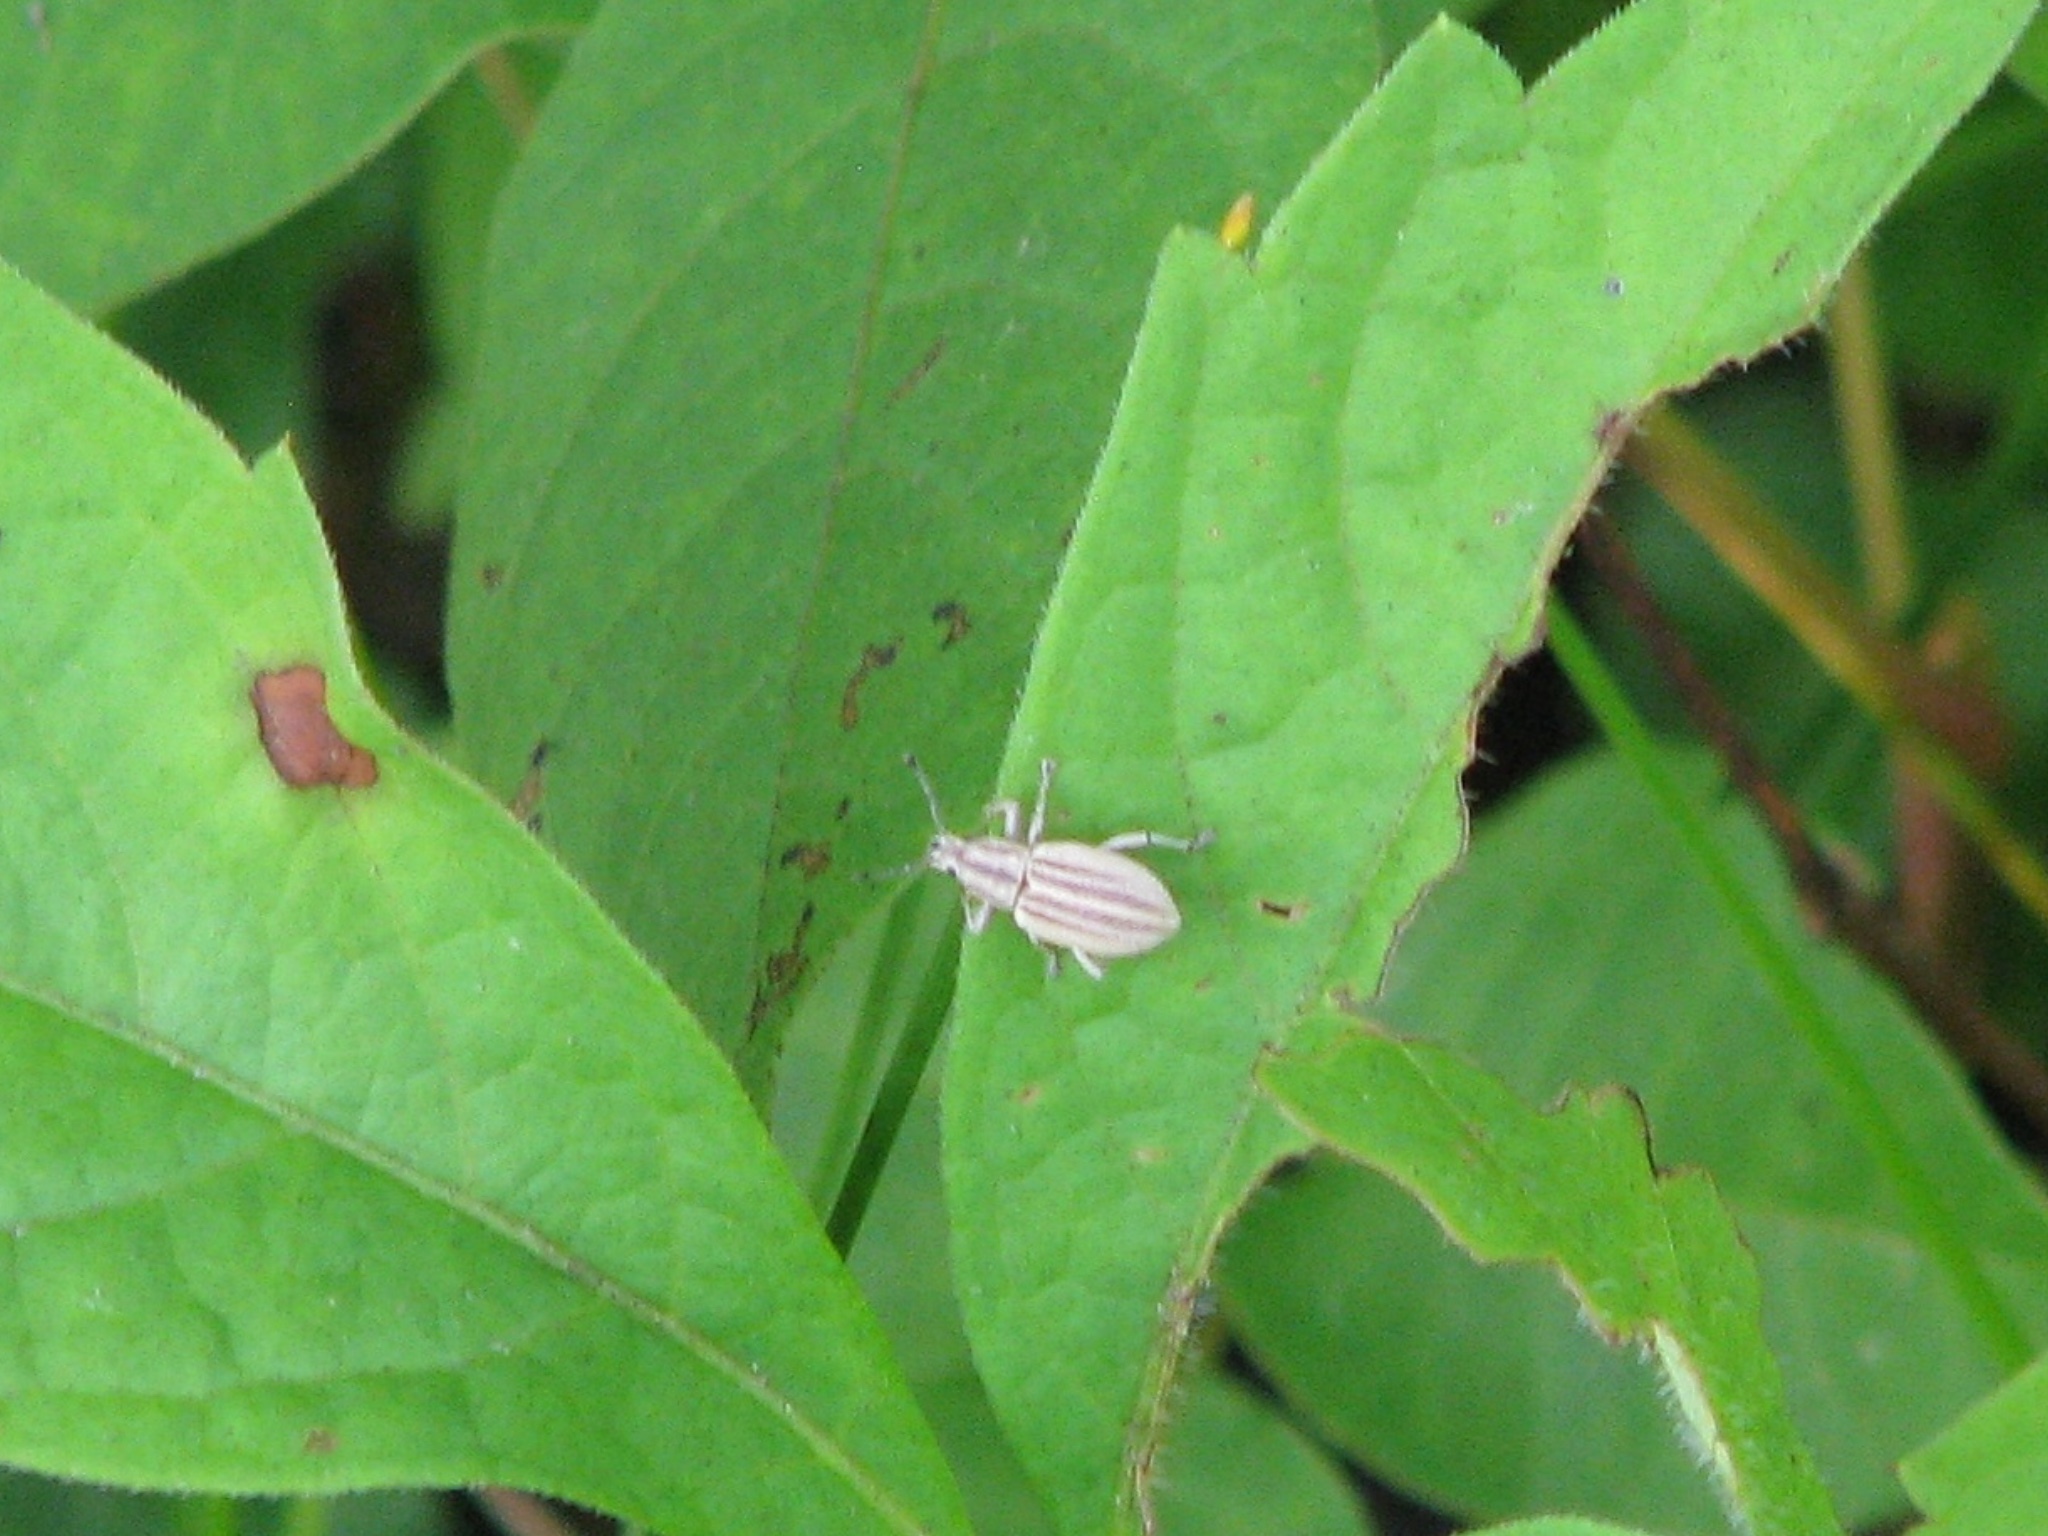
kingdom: Animalia
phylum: Arthropoda
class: Insecta
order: Coleoptera
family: Curculionidae
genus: Aphrastus
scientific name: Aphrastus taeniatus
